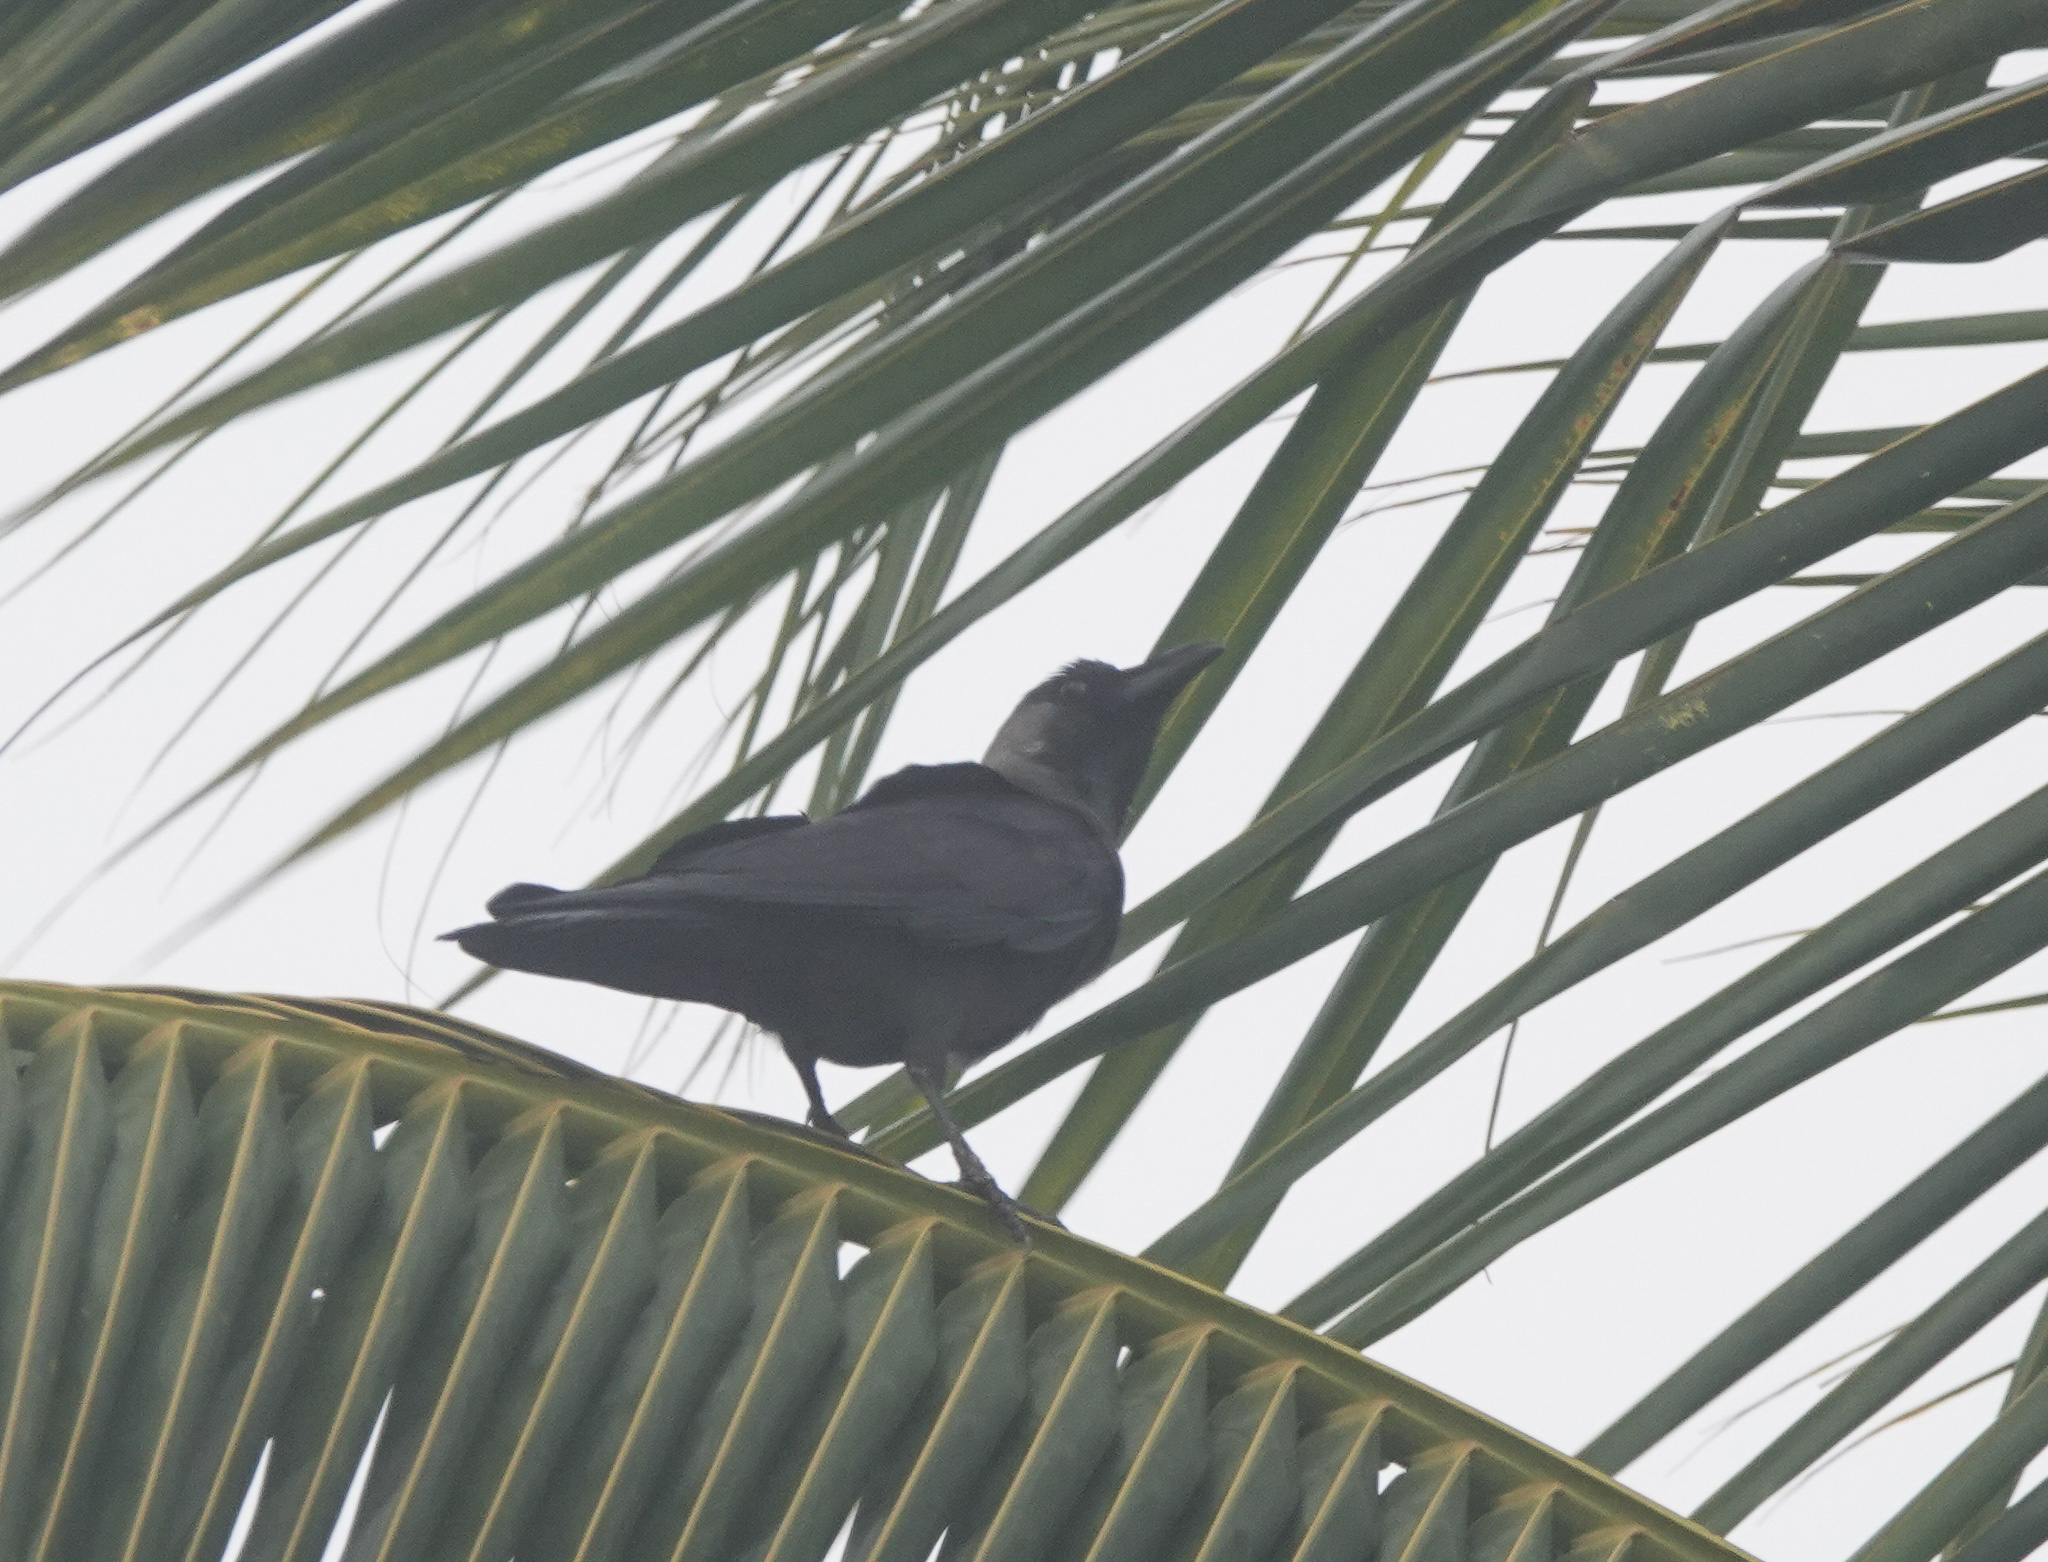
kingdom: Animalia
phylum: Chordata
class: Aves
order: Passeriformes
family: Corvidae
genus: Corvus
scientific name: Corvus splendens
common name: House crow
